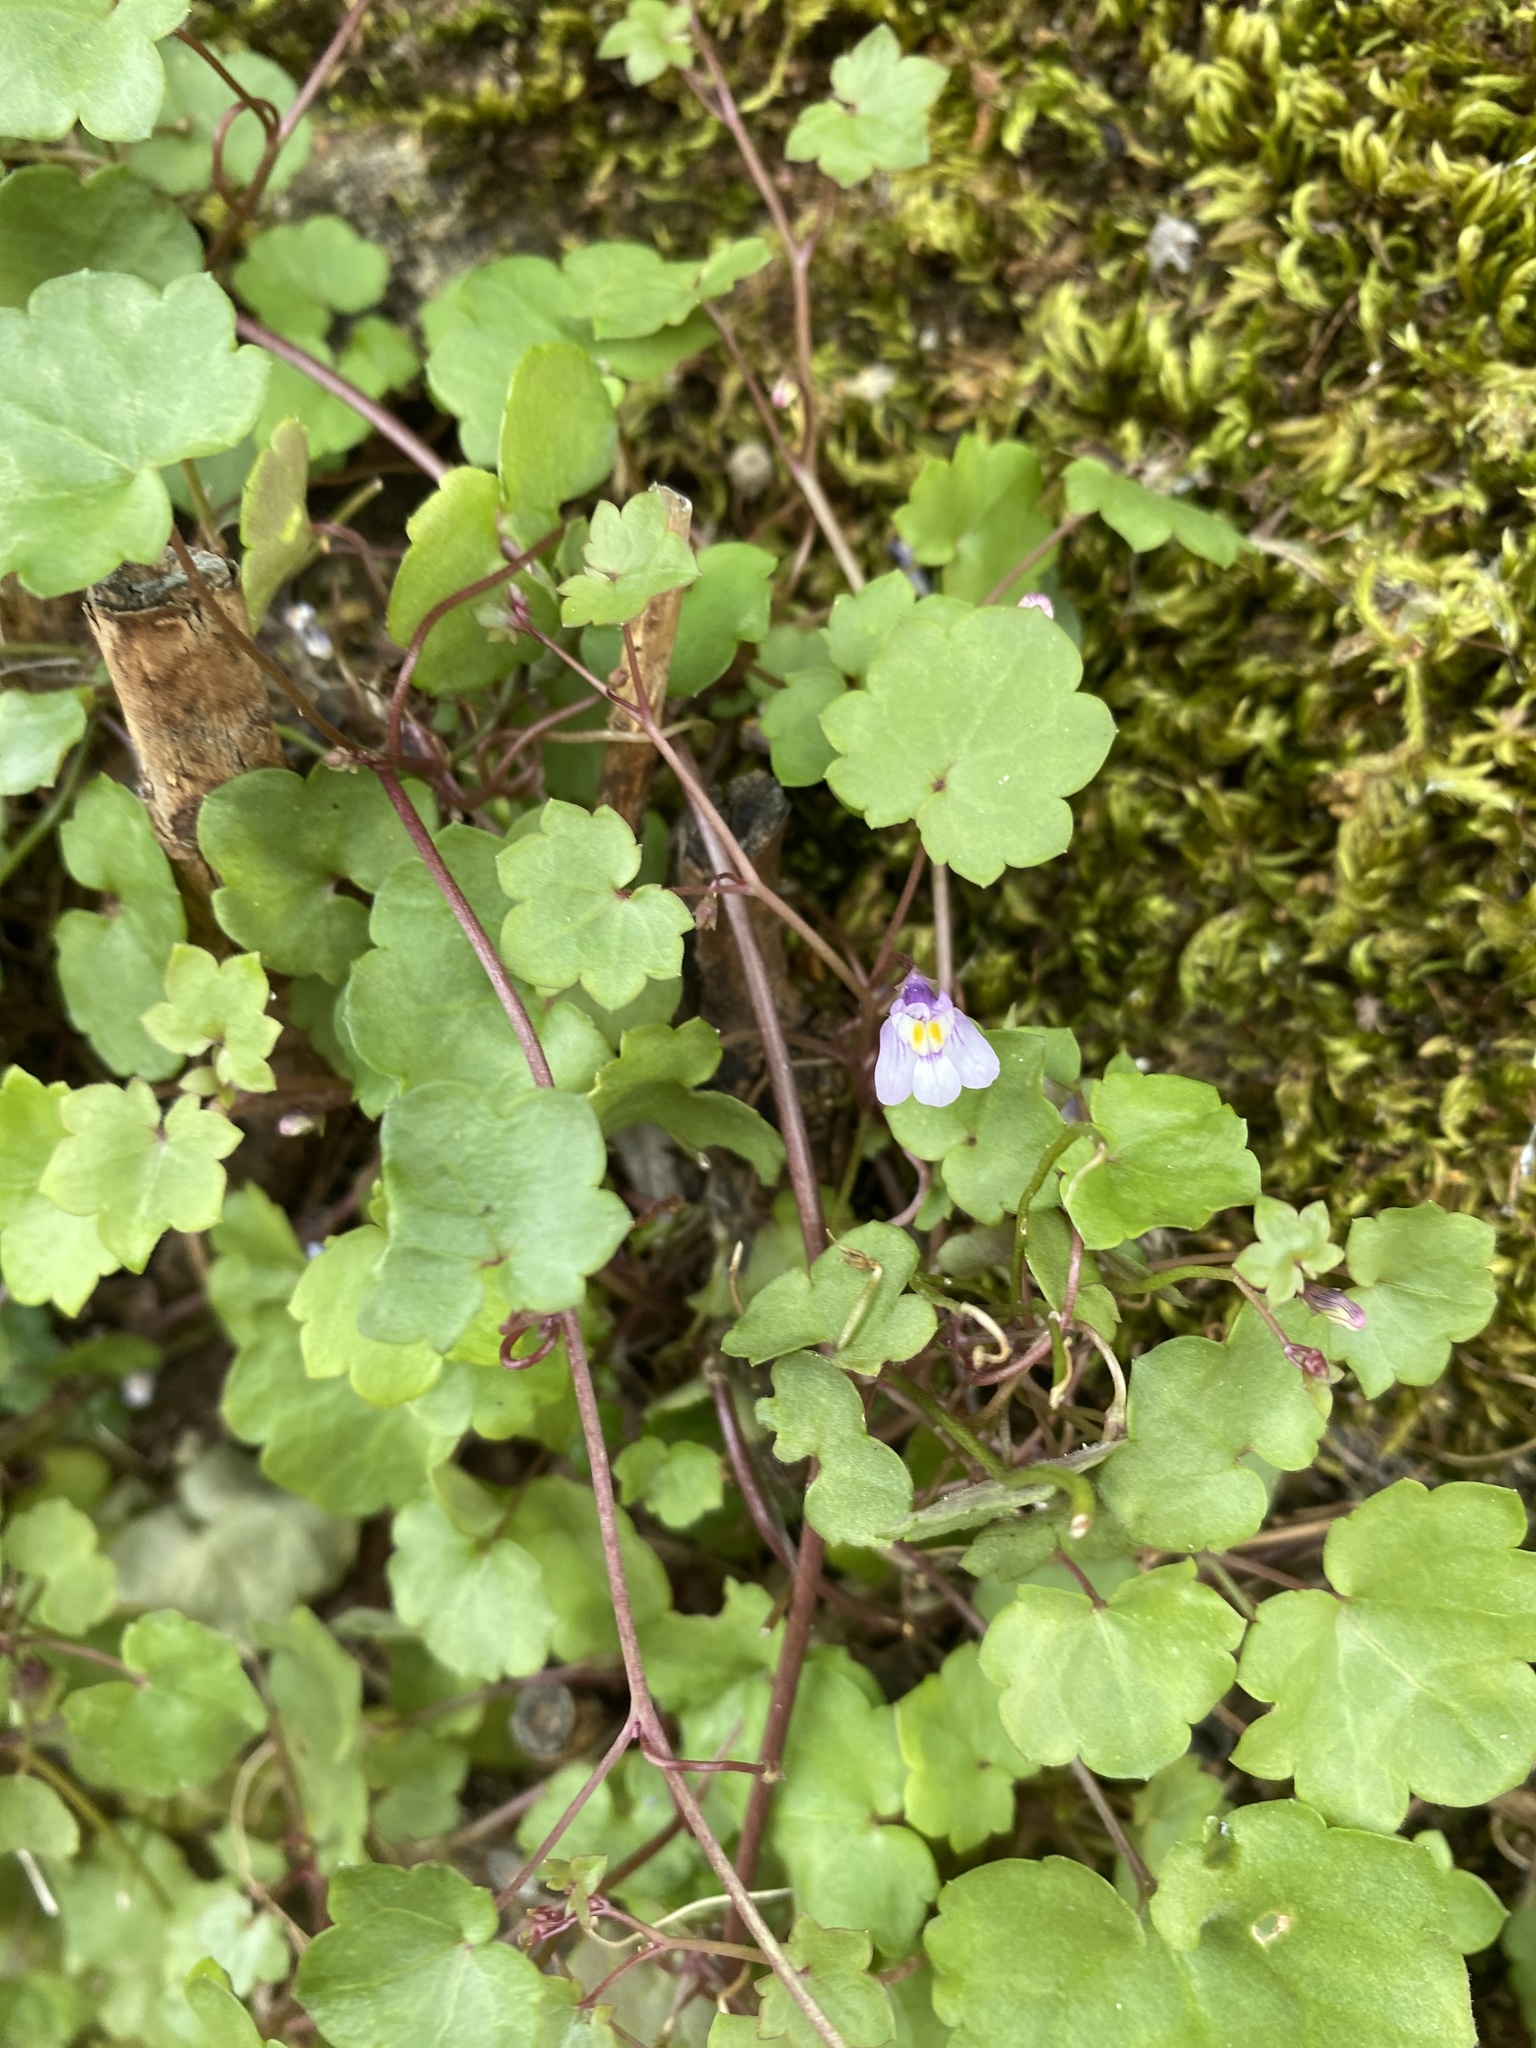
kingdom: Plantae
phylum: Tracheophyta
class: Magnoliopsida
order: Lamiales
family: Plantaginaceae
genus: Cymbalaria
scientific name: Cymbalaria muralis
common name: Ivy-leaved toadflax
